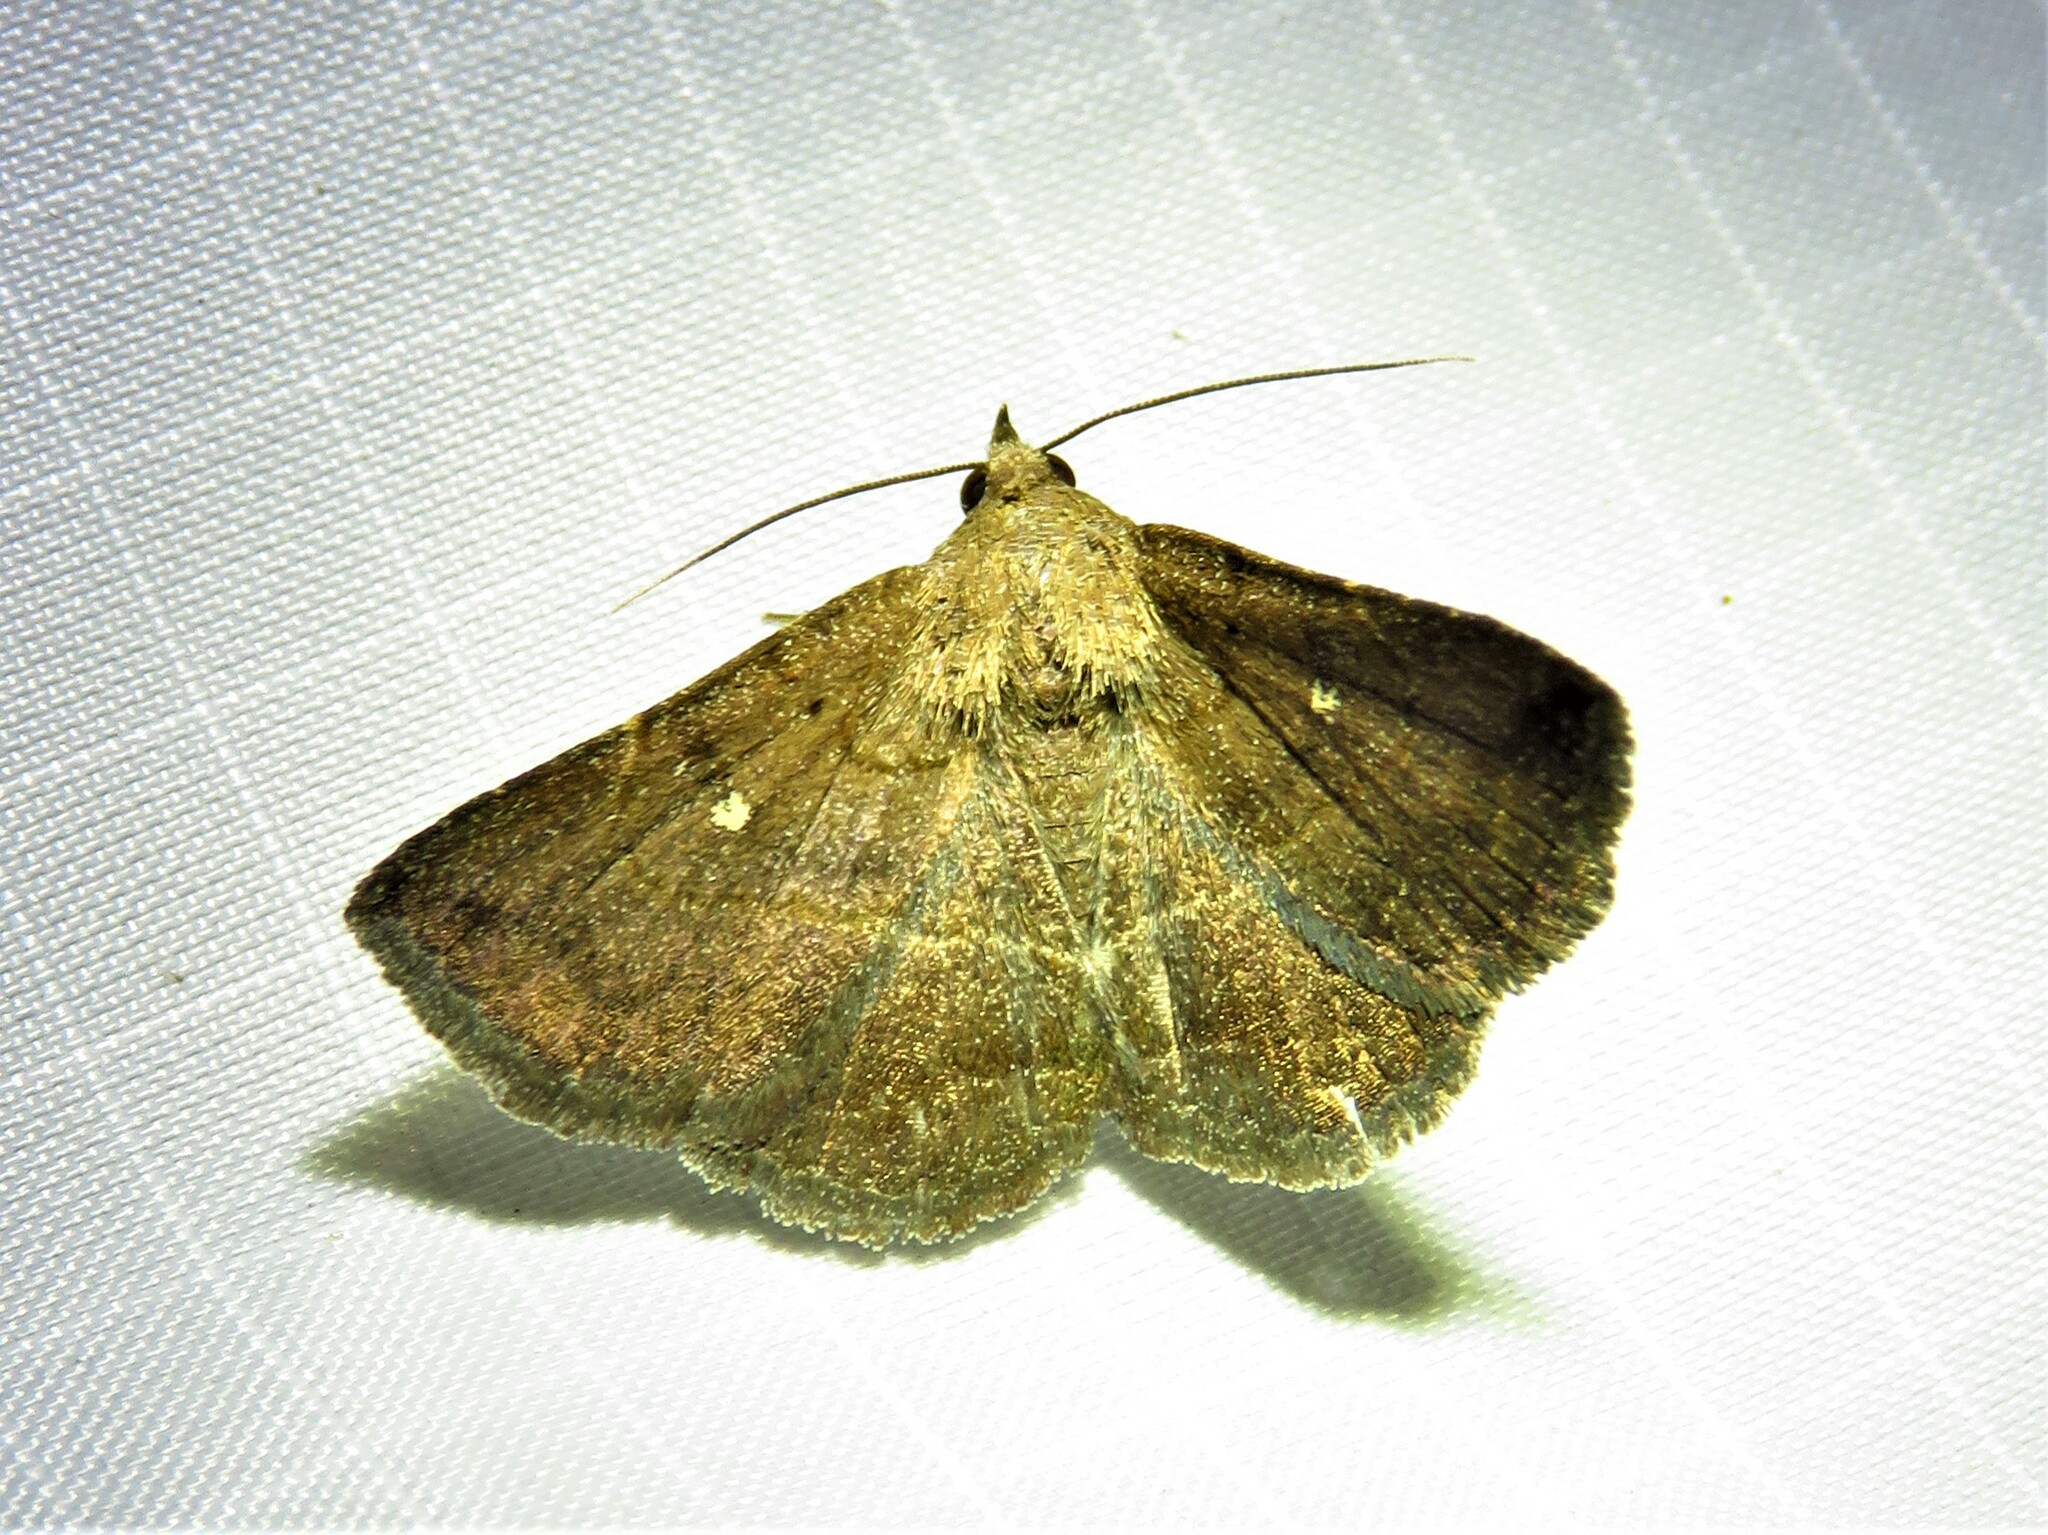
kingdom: Animalia
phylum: Arthropoda
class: Insecta
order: Lepidoptera
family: Erebidae
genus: Lesmone
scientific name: Lesmone detrahens
